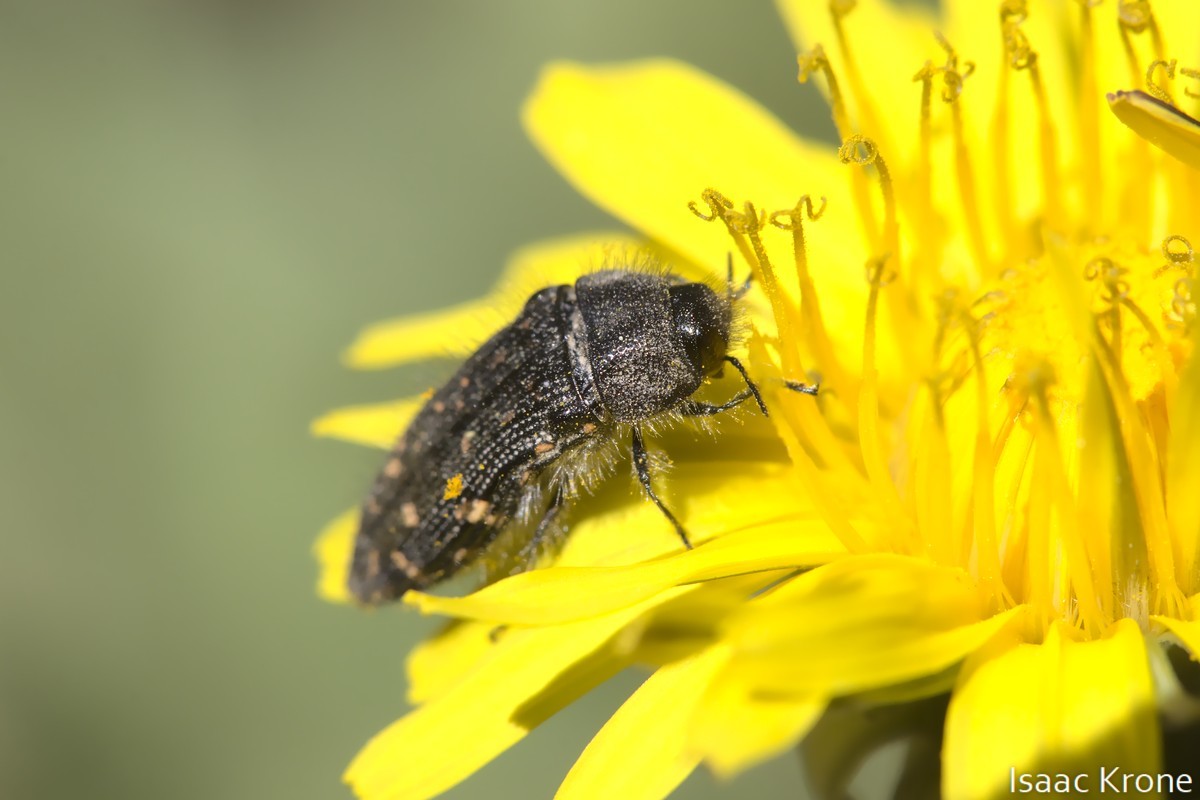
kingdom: Animalia
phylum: Arthropoda
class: Insecta
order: Coleoptera
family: Buprestidae
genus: Acmaeodera
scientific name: Acmaeodera knowltoni
